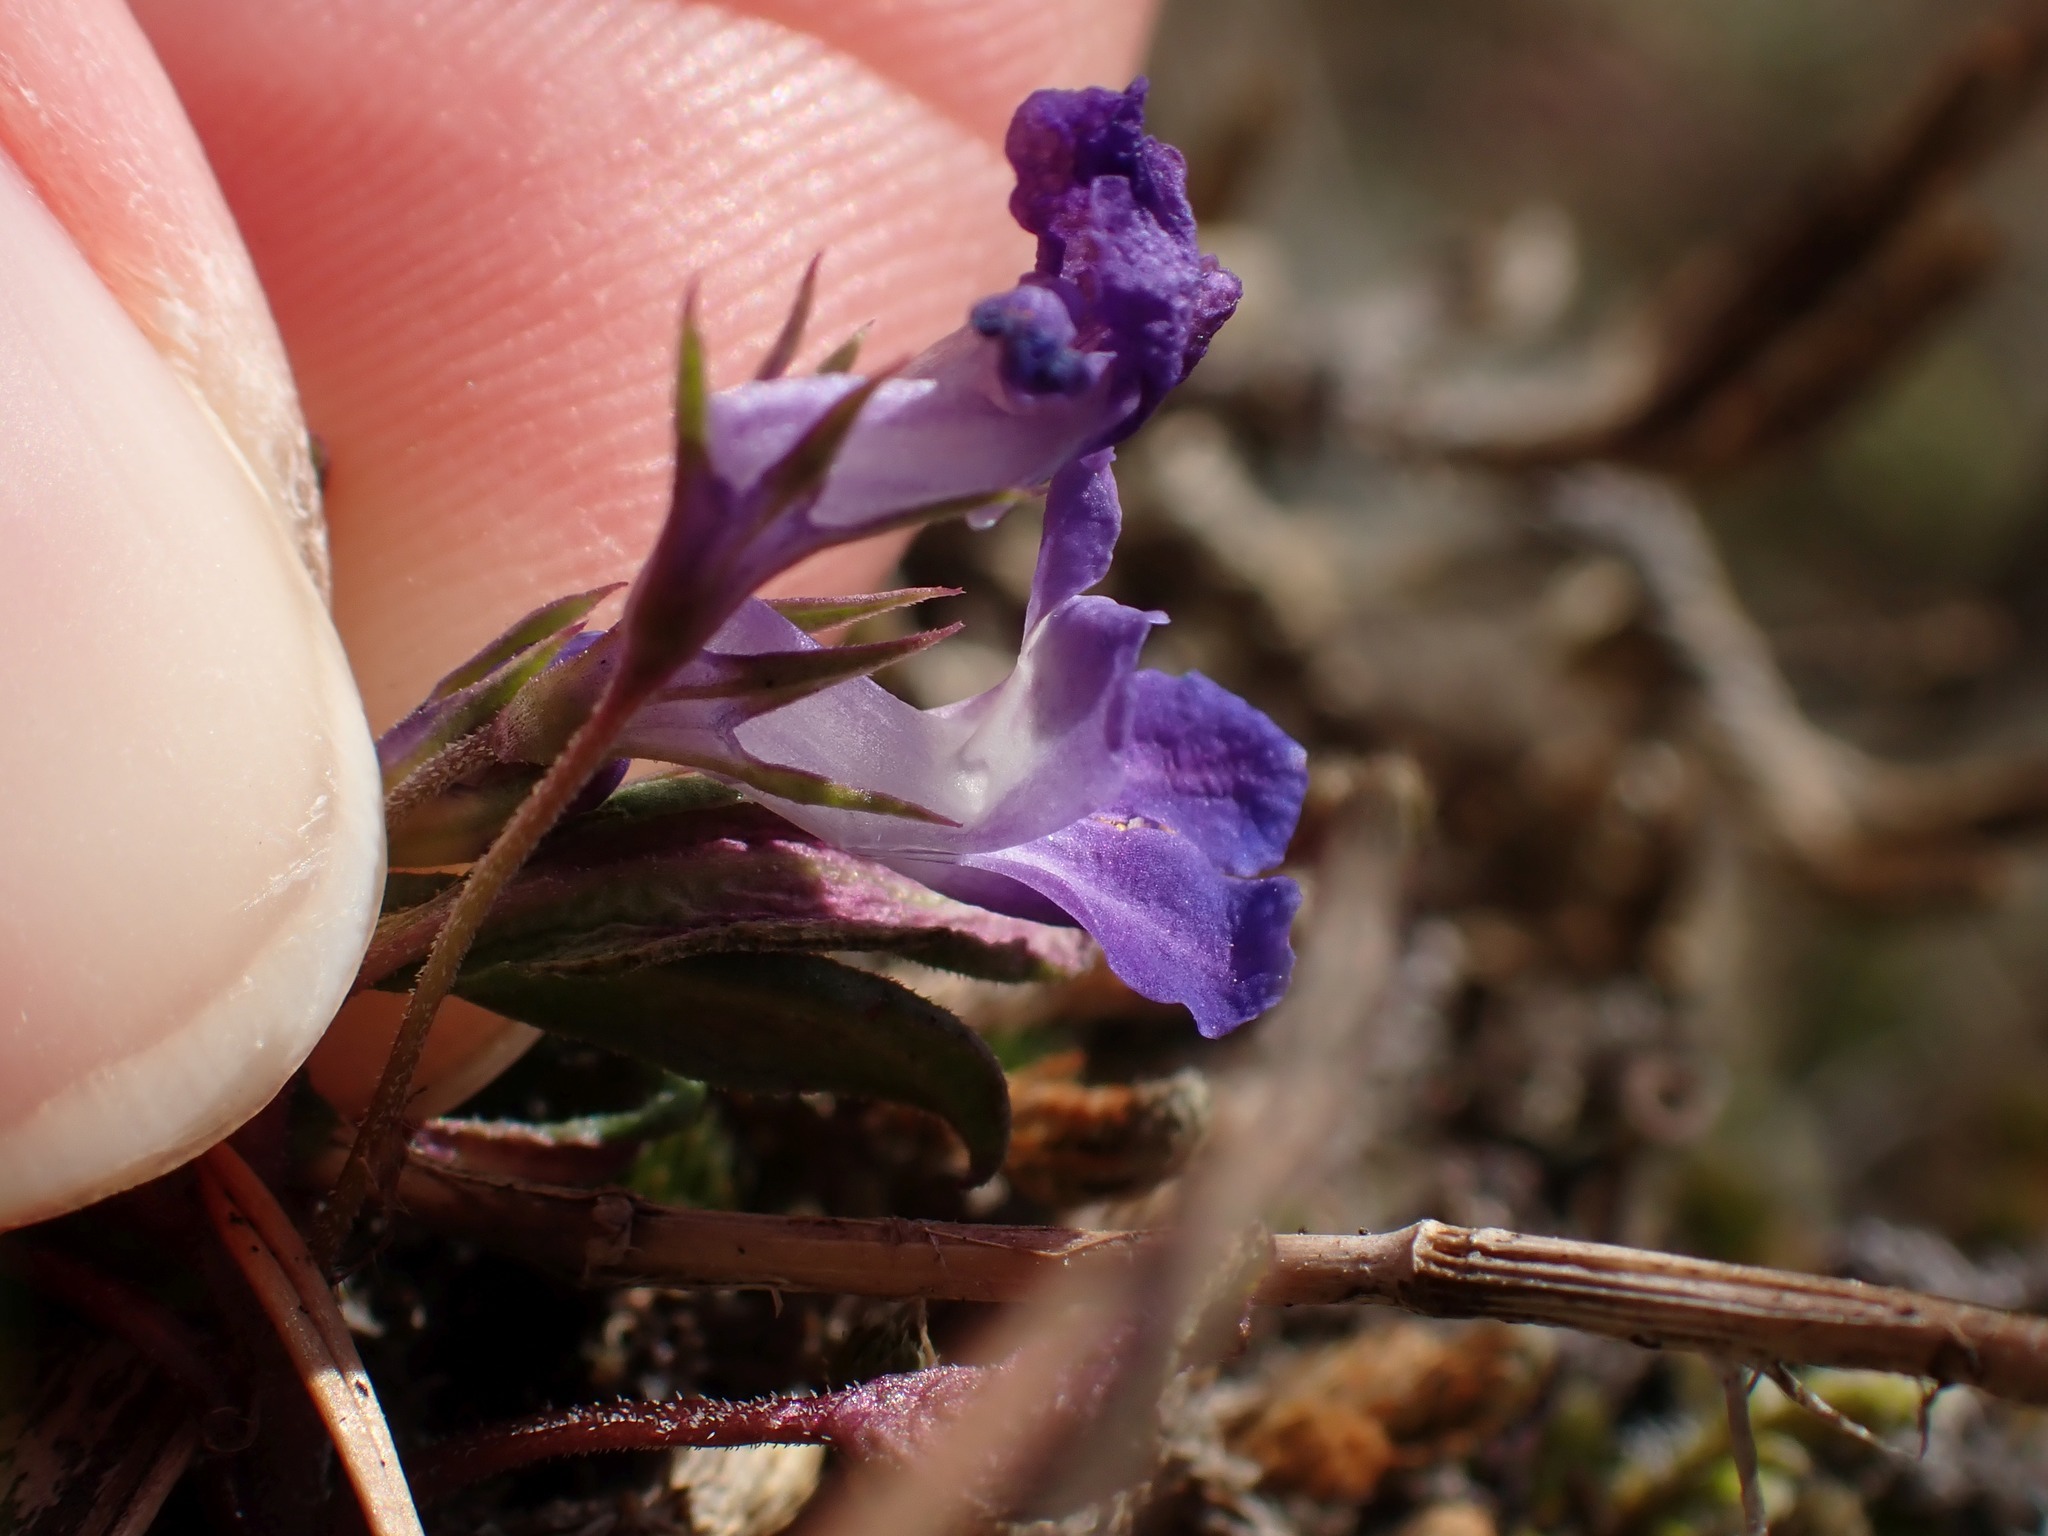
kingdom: Plantae
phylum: Tracheophyta
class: Magnoliopsida
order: Lamiales
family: Plantaginaceae
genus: Collinsia
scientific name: Collinsia parviflora
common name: Blue-lips
